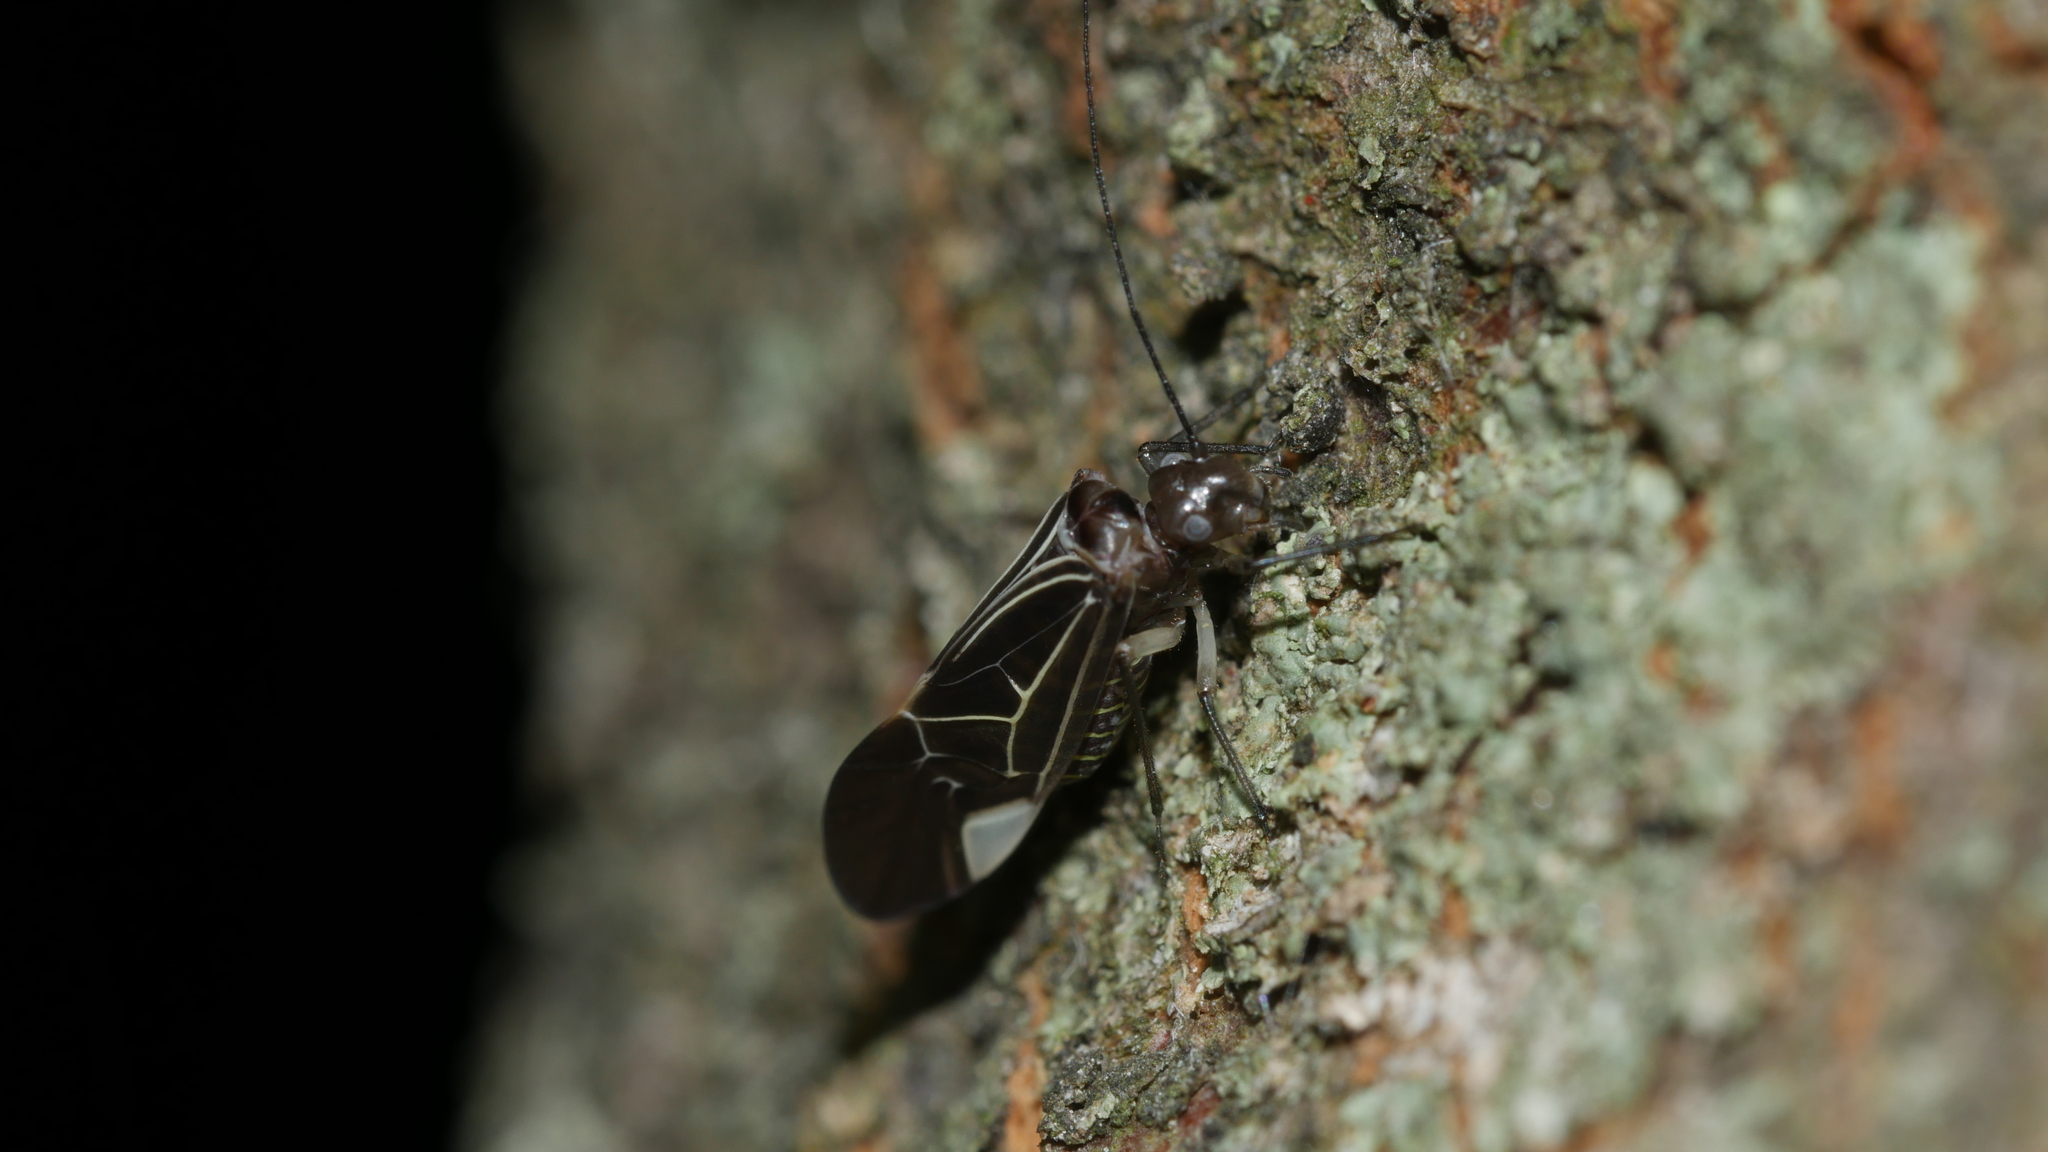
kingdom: Animalia
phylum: Arthropoda
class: Insecta
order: Psocodea
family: Psocidae
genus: Cerastipsocus
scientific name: Cerastipsocus venosus
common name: Tree cattle
